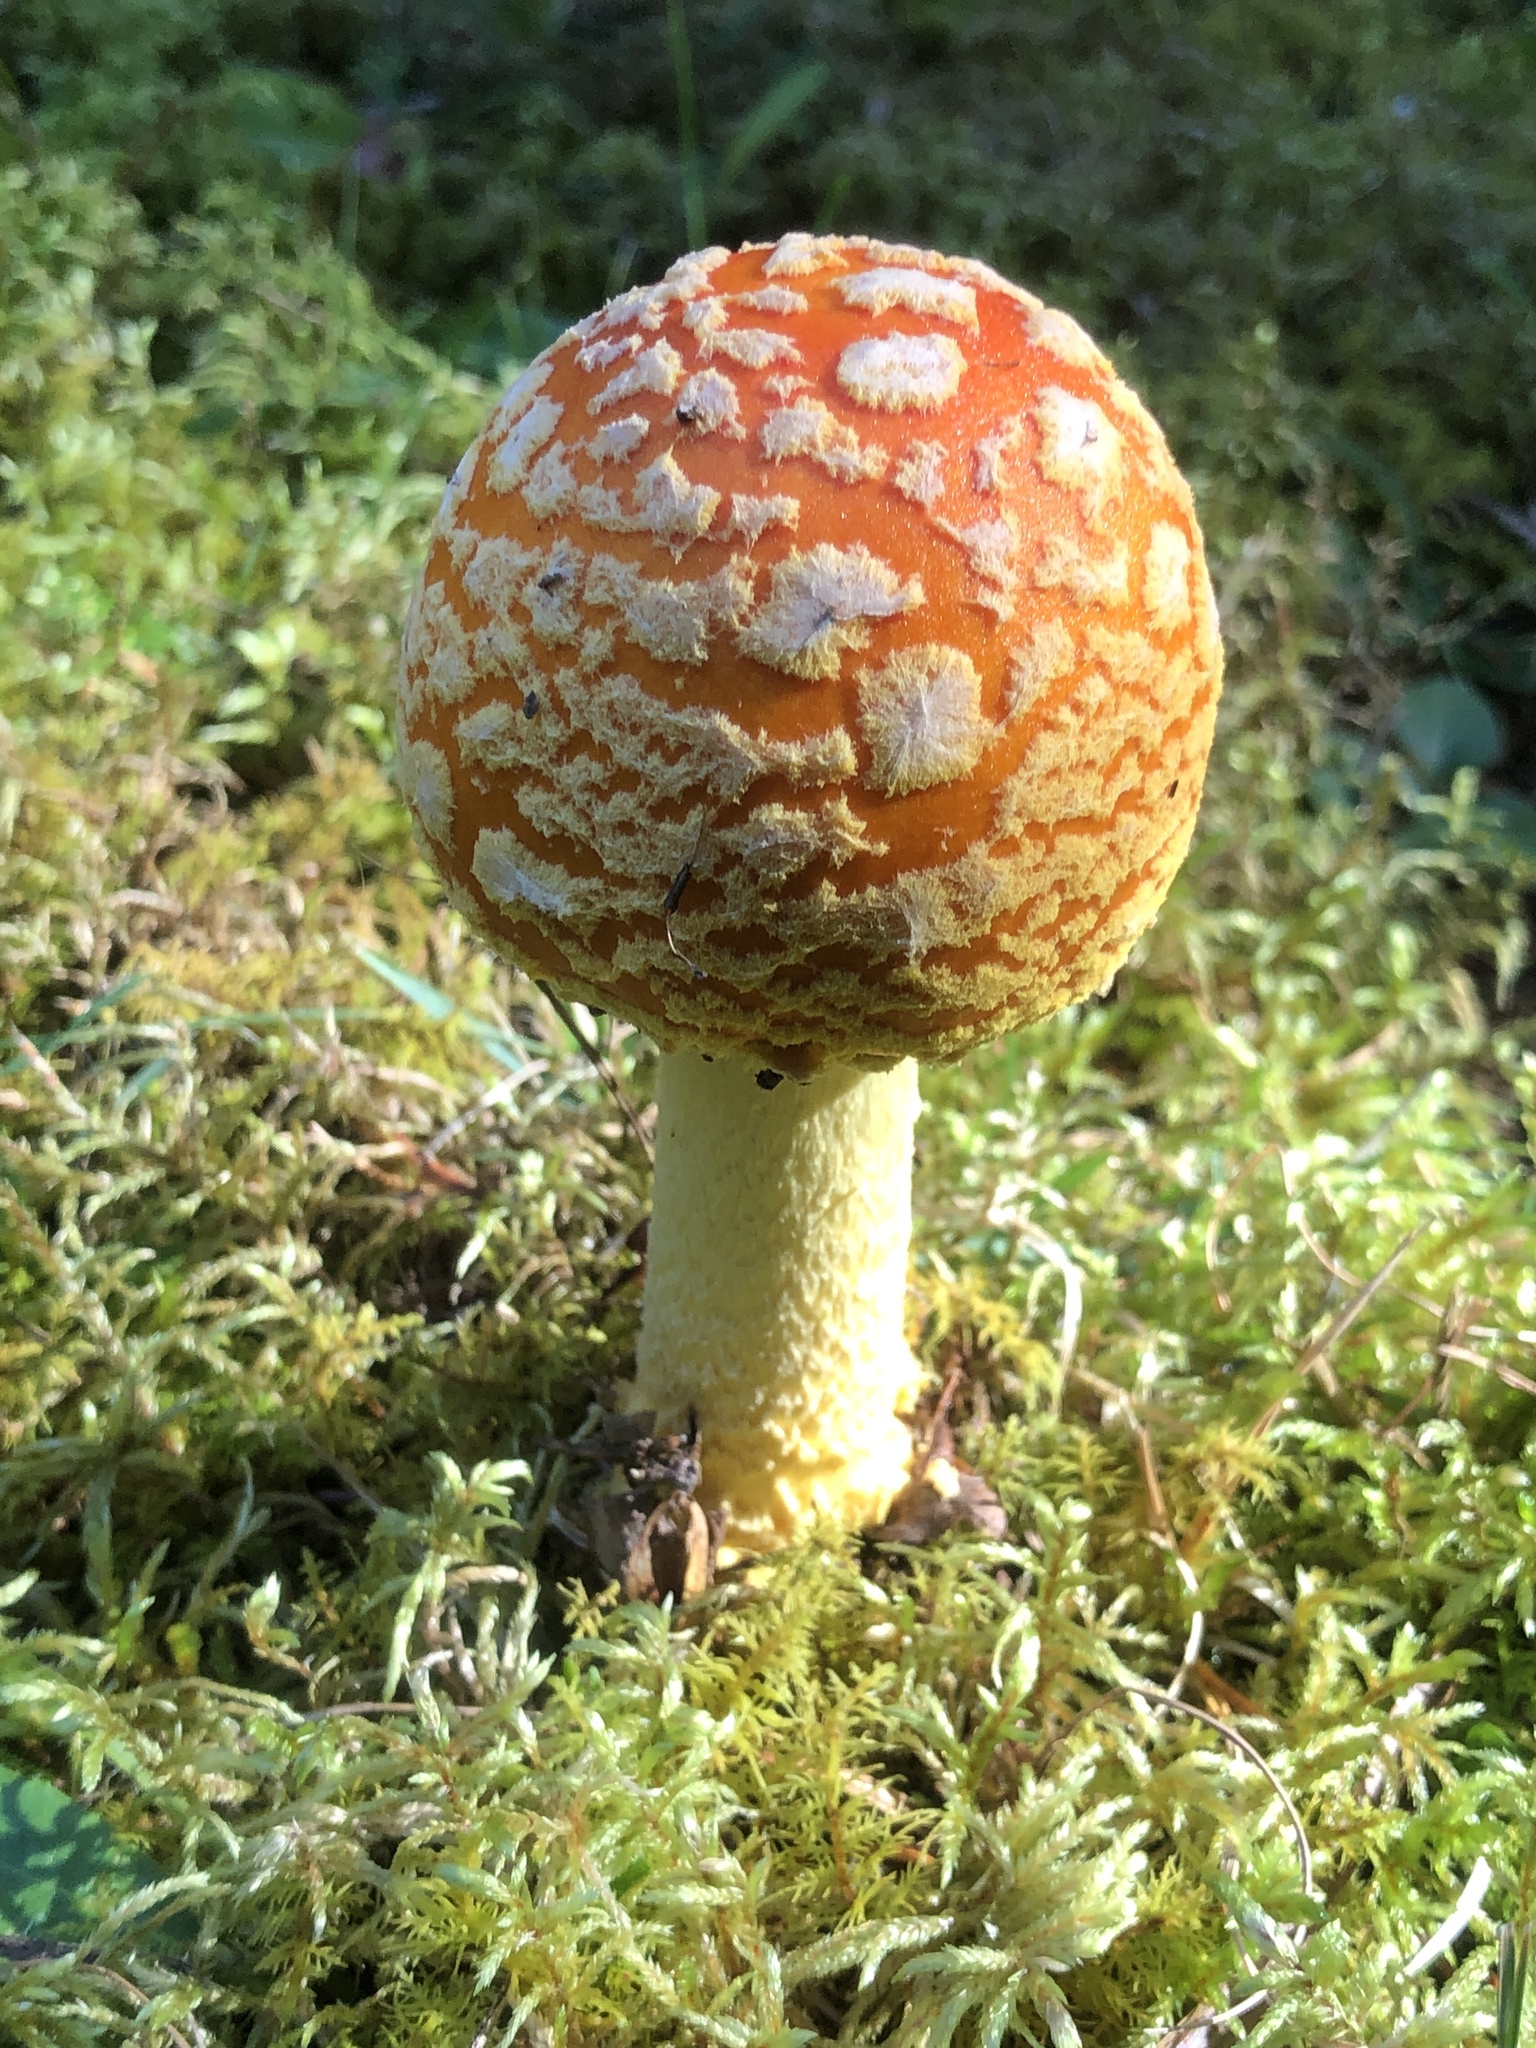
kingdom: Fungi
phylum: Basidiomycota
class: Agaricomycetes
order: Agaricales
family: Amanitaceae
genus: Amanita
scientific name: Amanita muscaria
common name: Fly agaric
